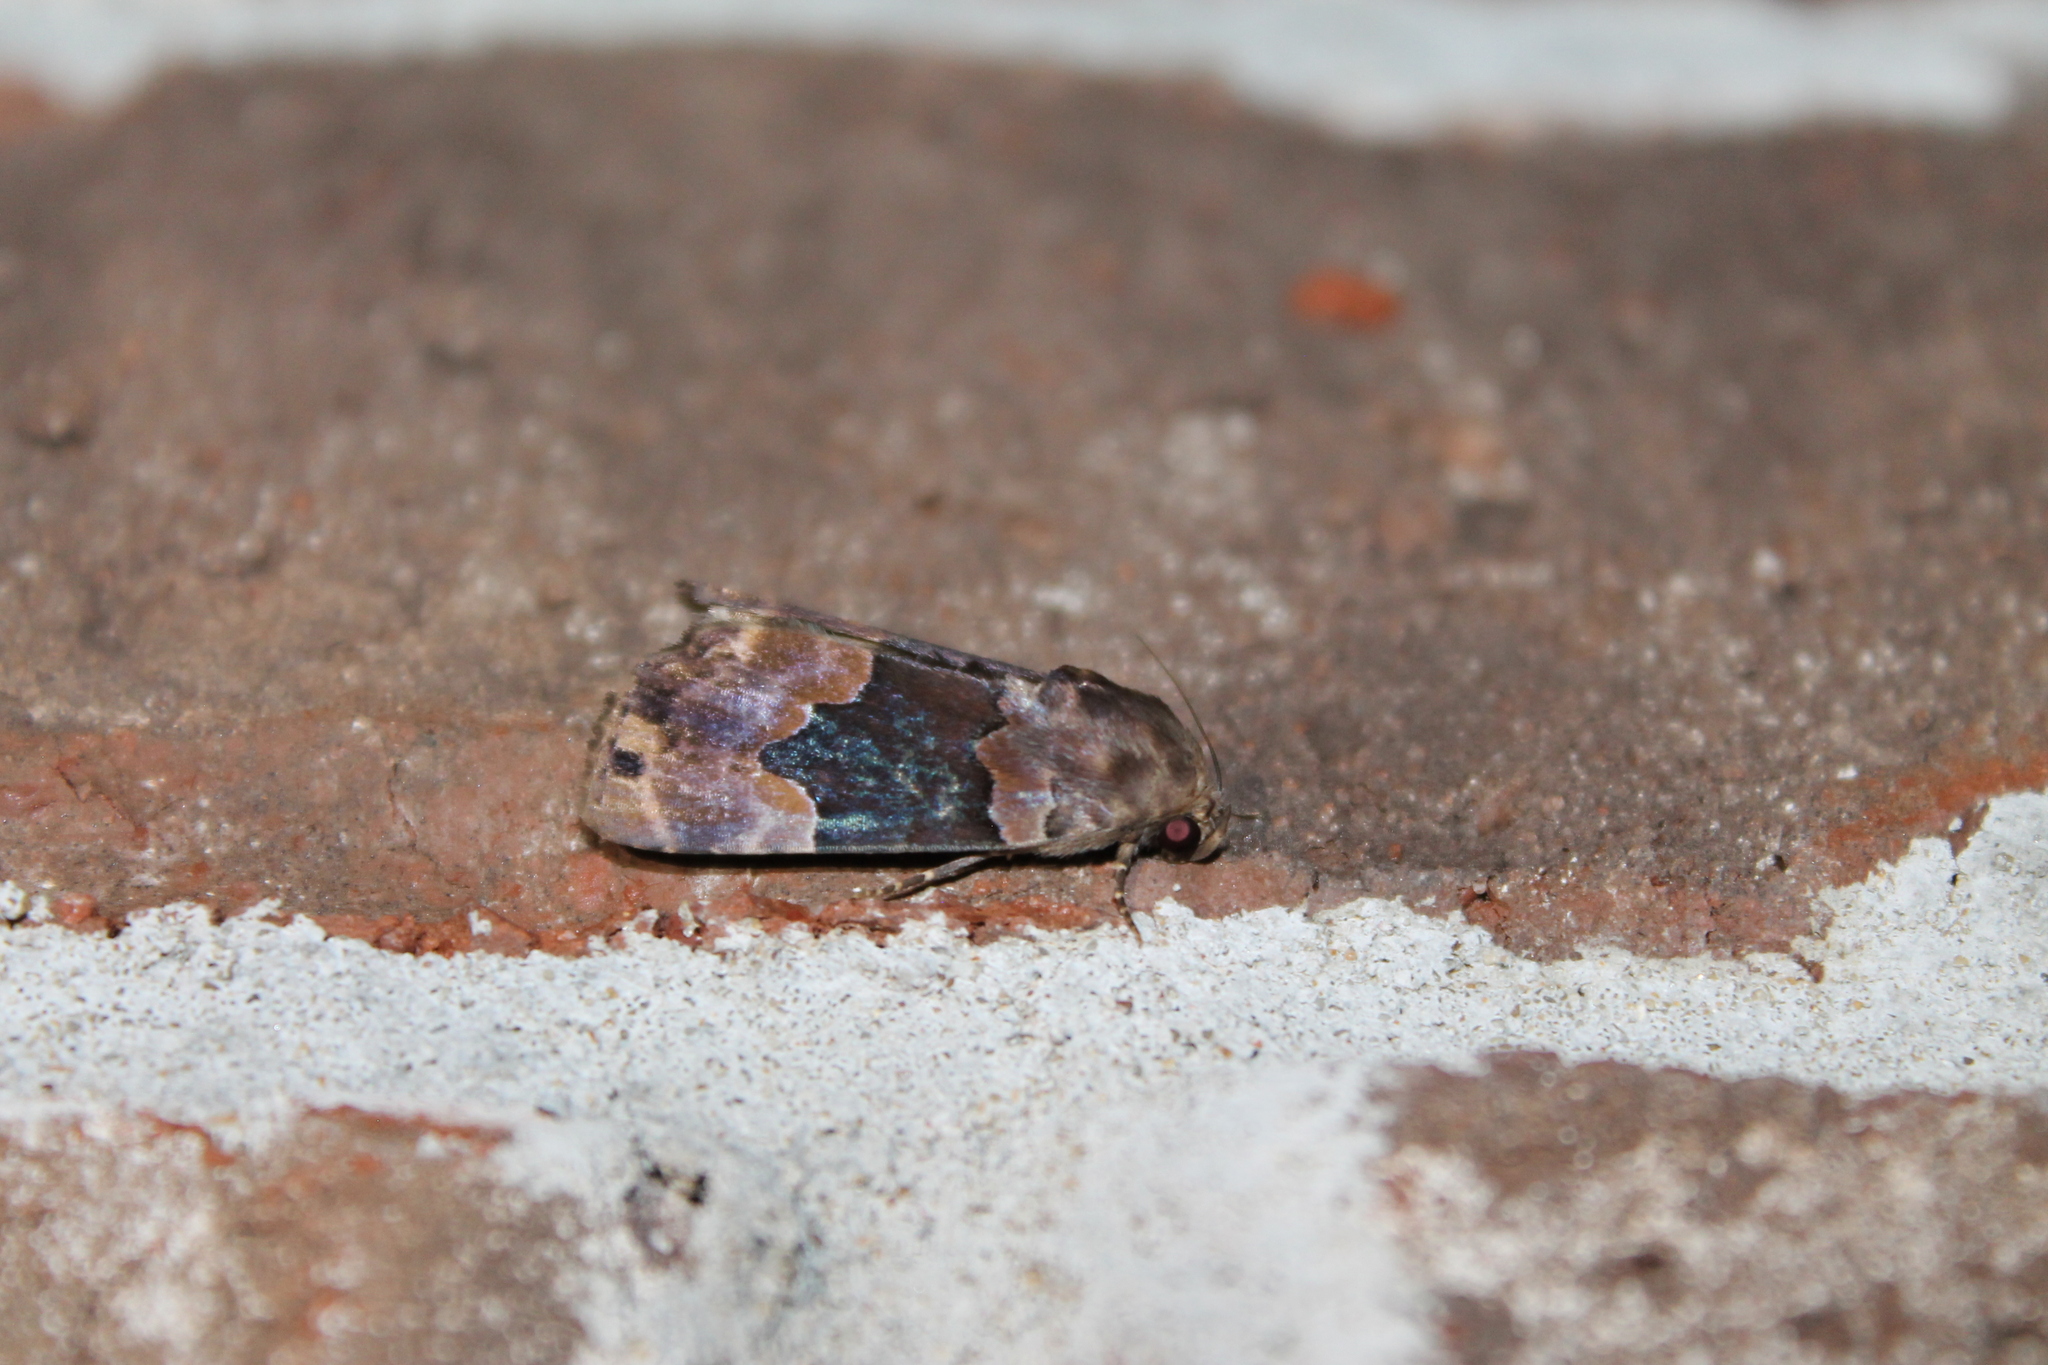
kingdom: Animalia
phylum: Arthropoda
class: Insecta
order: Lepidoptera
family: Erebidae
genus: Dinumma
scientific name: Dinumma deponens
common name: Purplish moth
